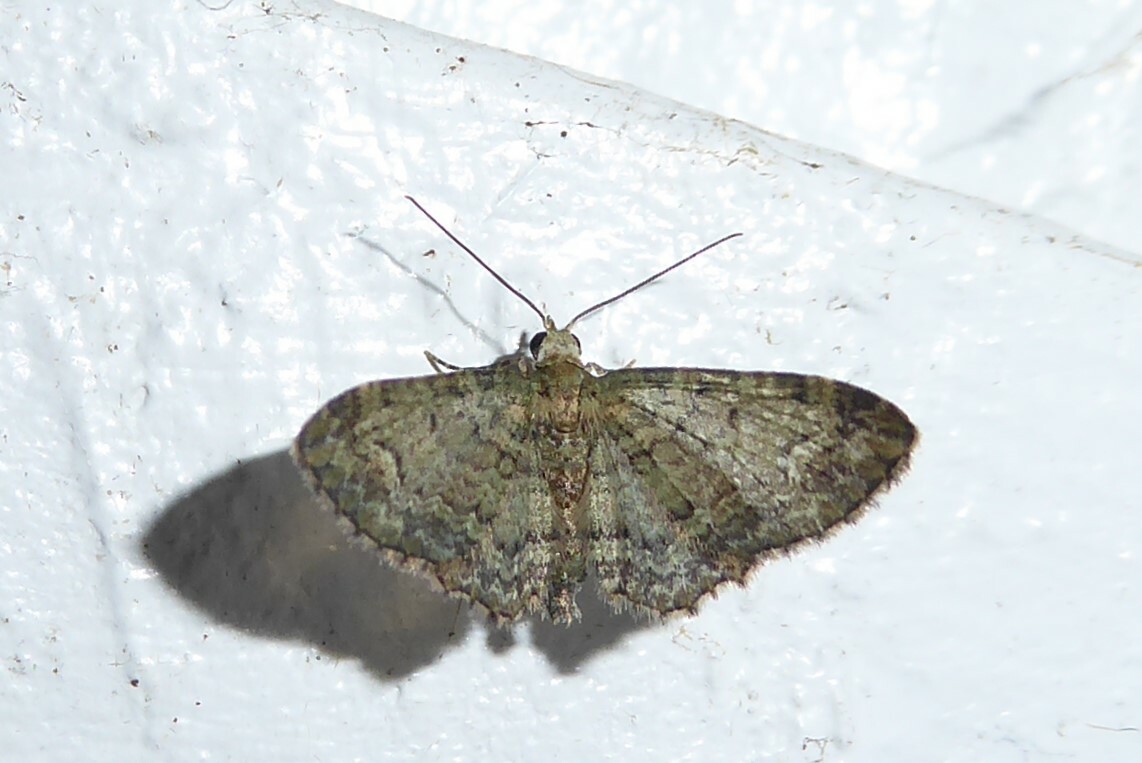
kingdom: Animalia
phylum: Arthropoda
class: Insecta
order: Lepidoptera
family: Geometridae
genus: Pasiphilodes
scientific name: Pasiphilodes testulata
